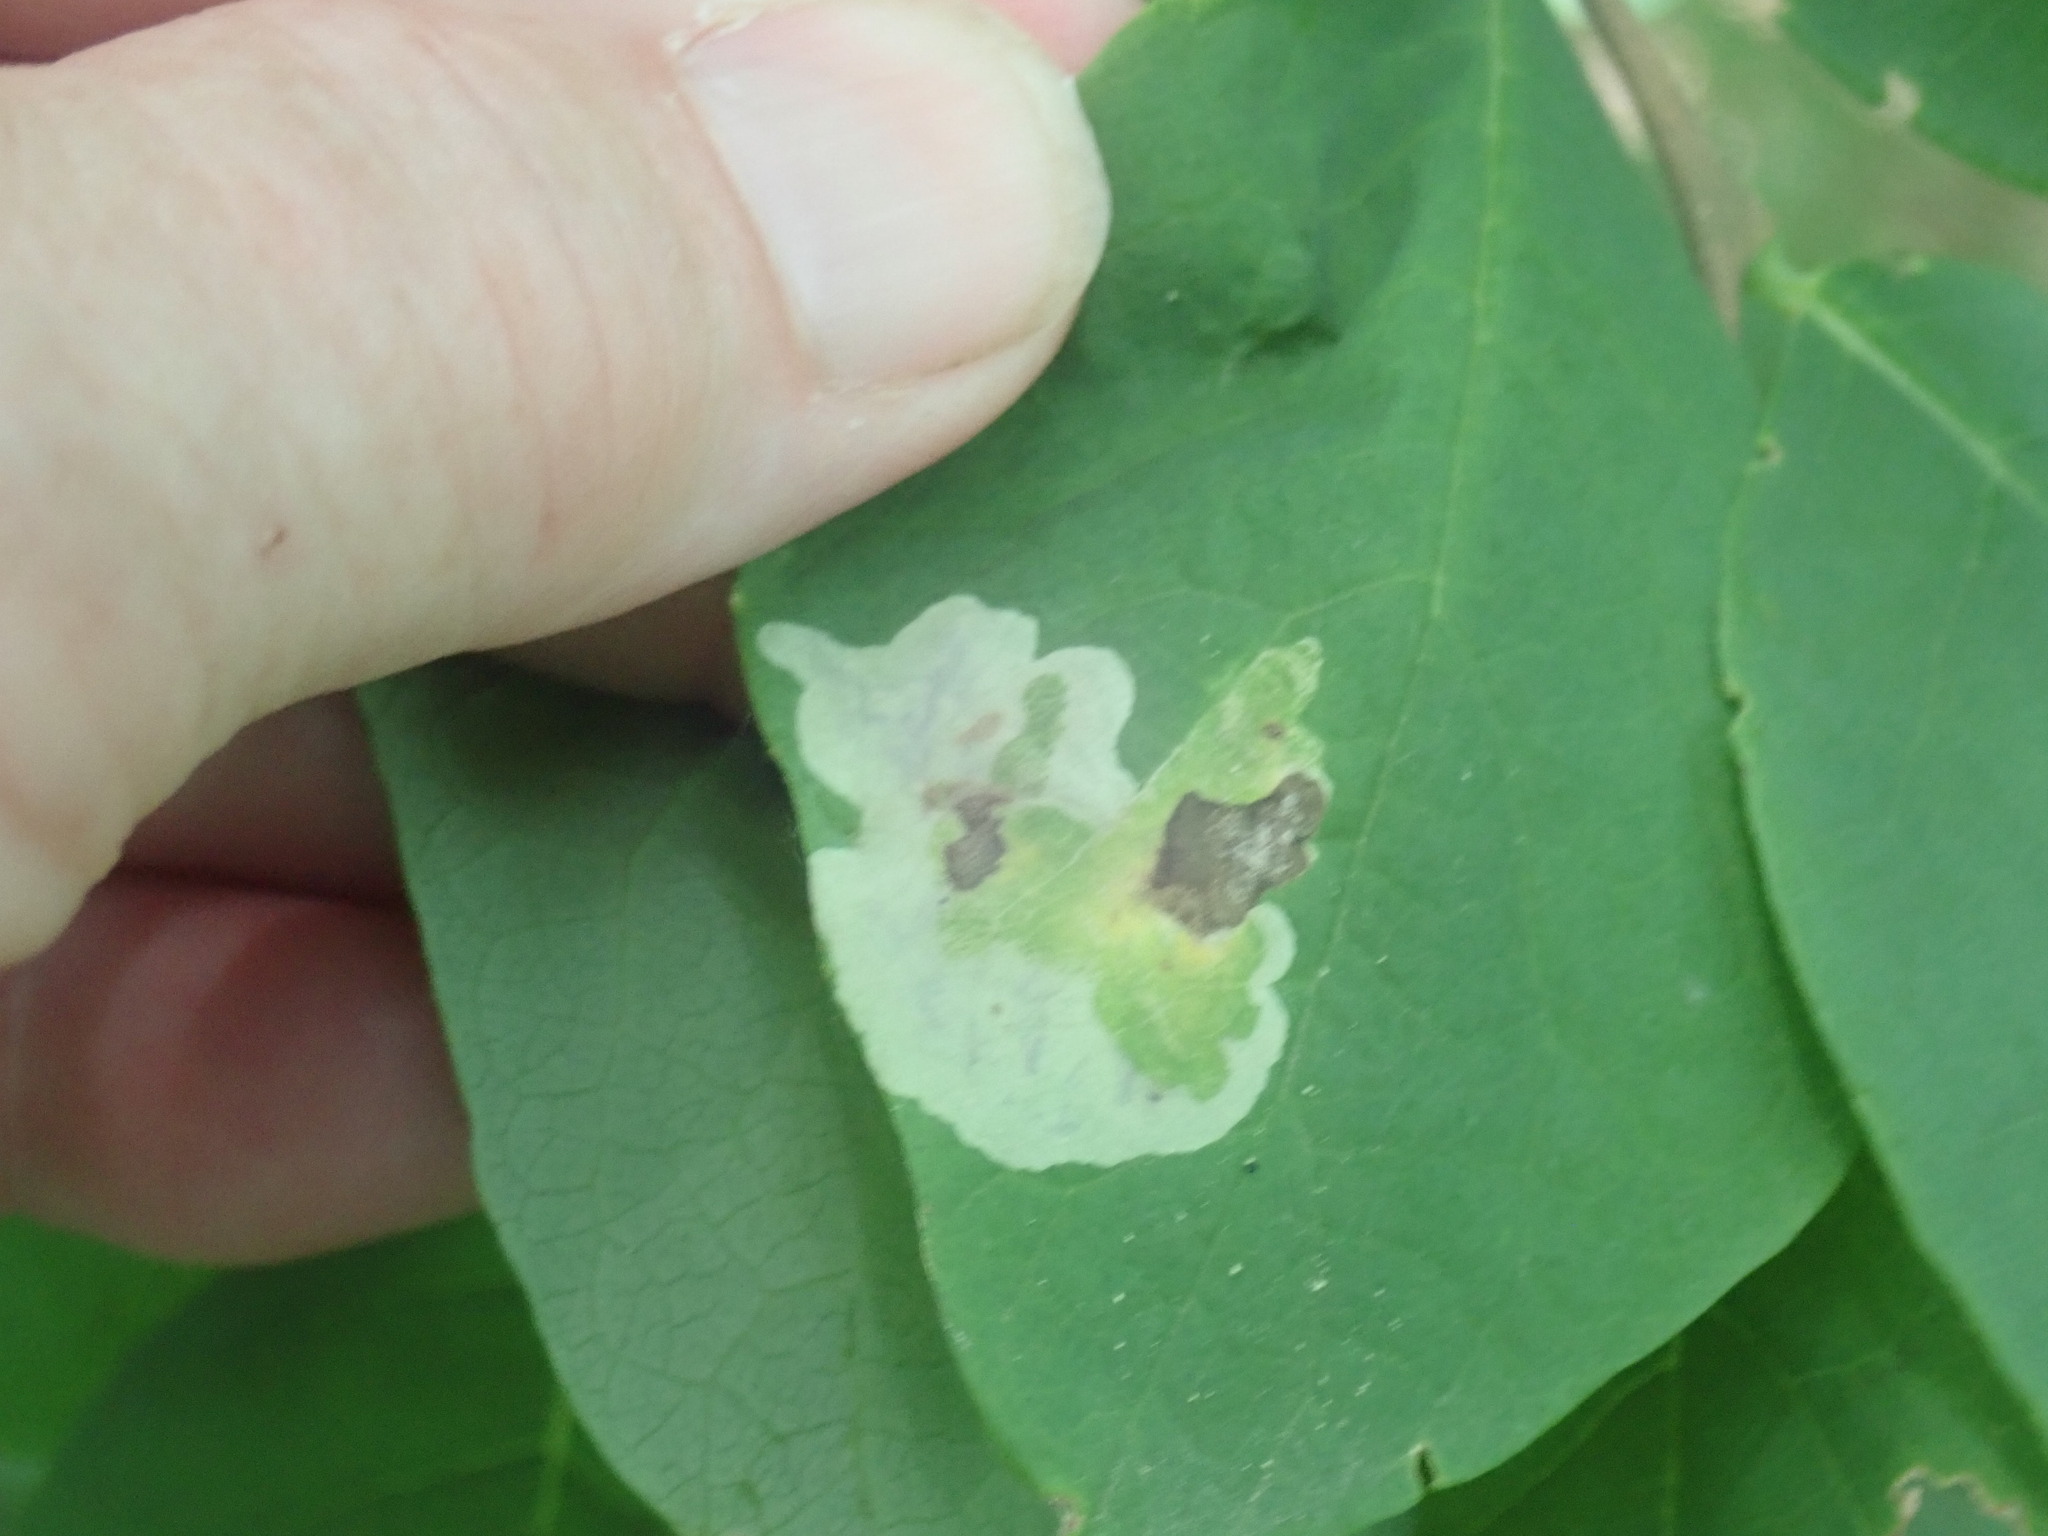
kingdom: Animalia
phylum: Arthropoda
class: Insecta
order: Lepidoptera
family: Gracillariidae
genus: Leucanthiza
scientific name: Leucanthiza dircella
